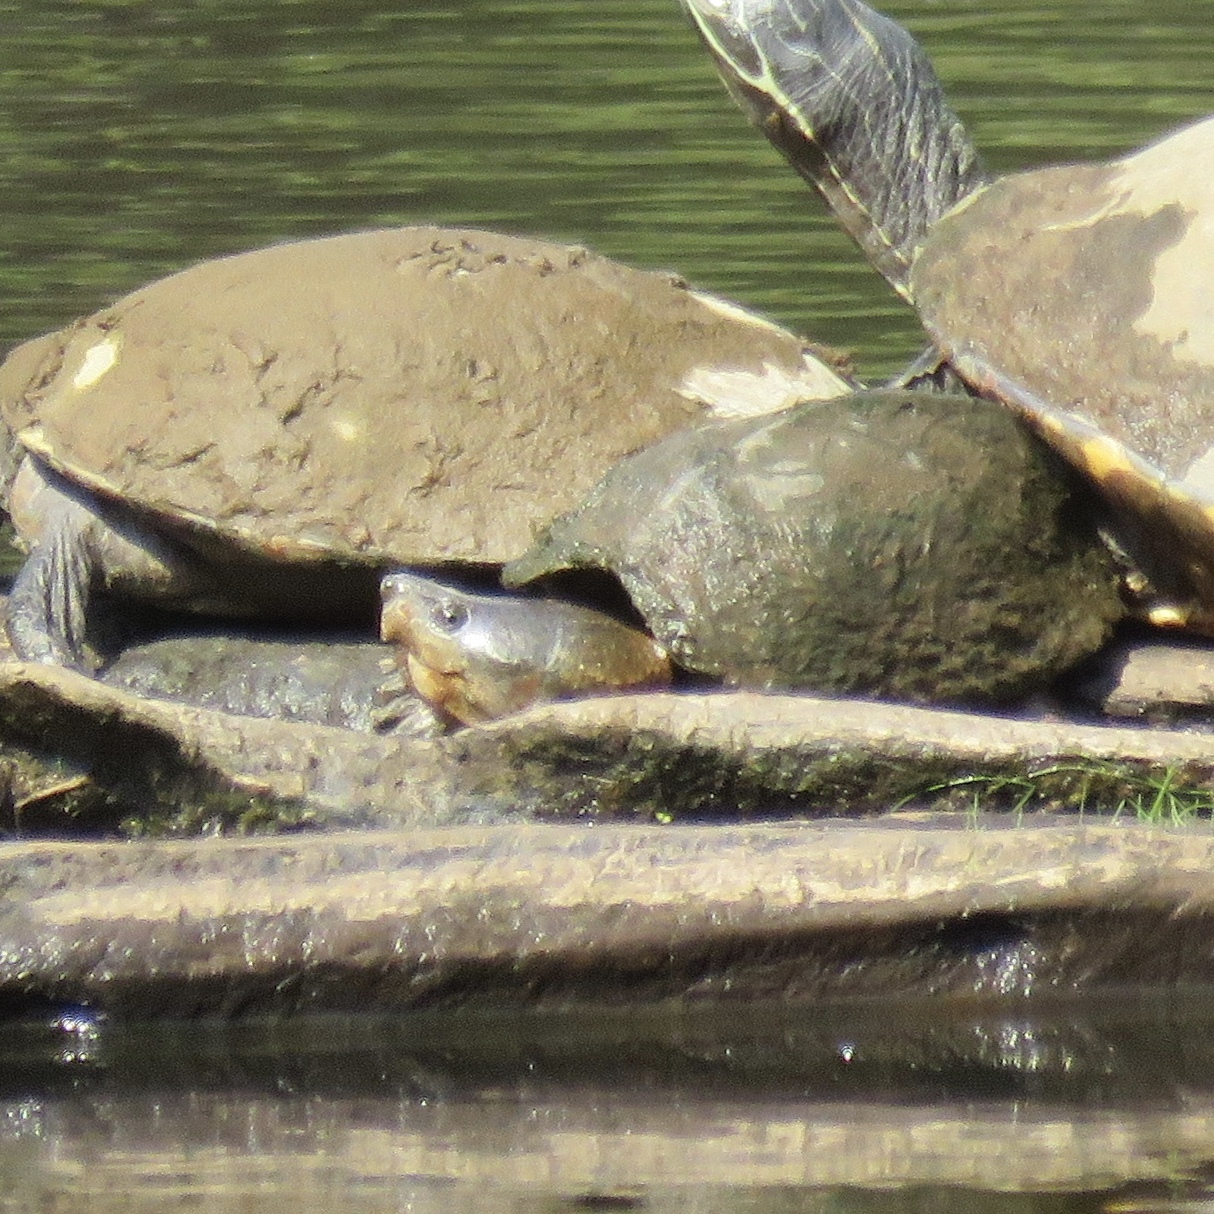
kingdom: Animalia
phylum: Chordata
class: Testudines
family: Kinosternidae
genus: Sternotherus
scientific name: Sternotherus carinatus
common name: Razor-backed musk turtle
